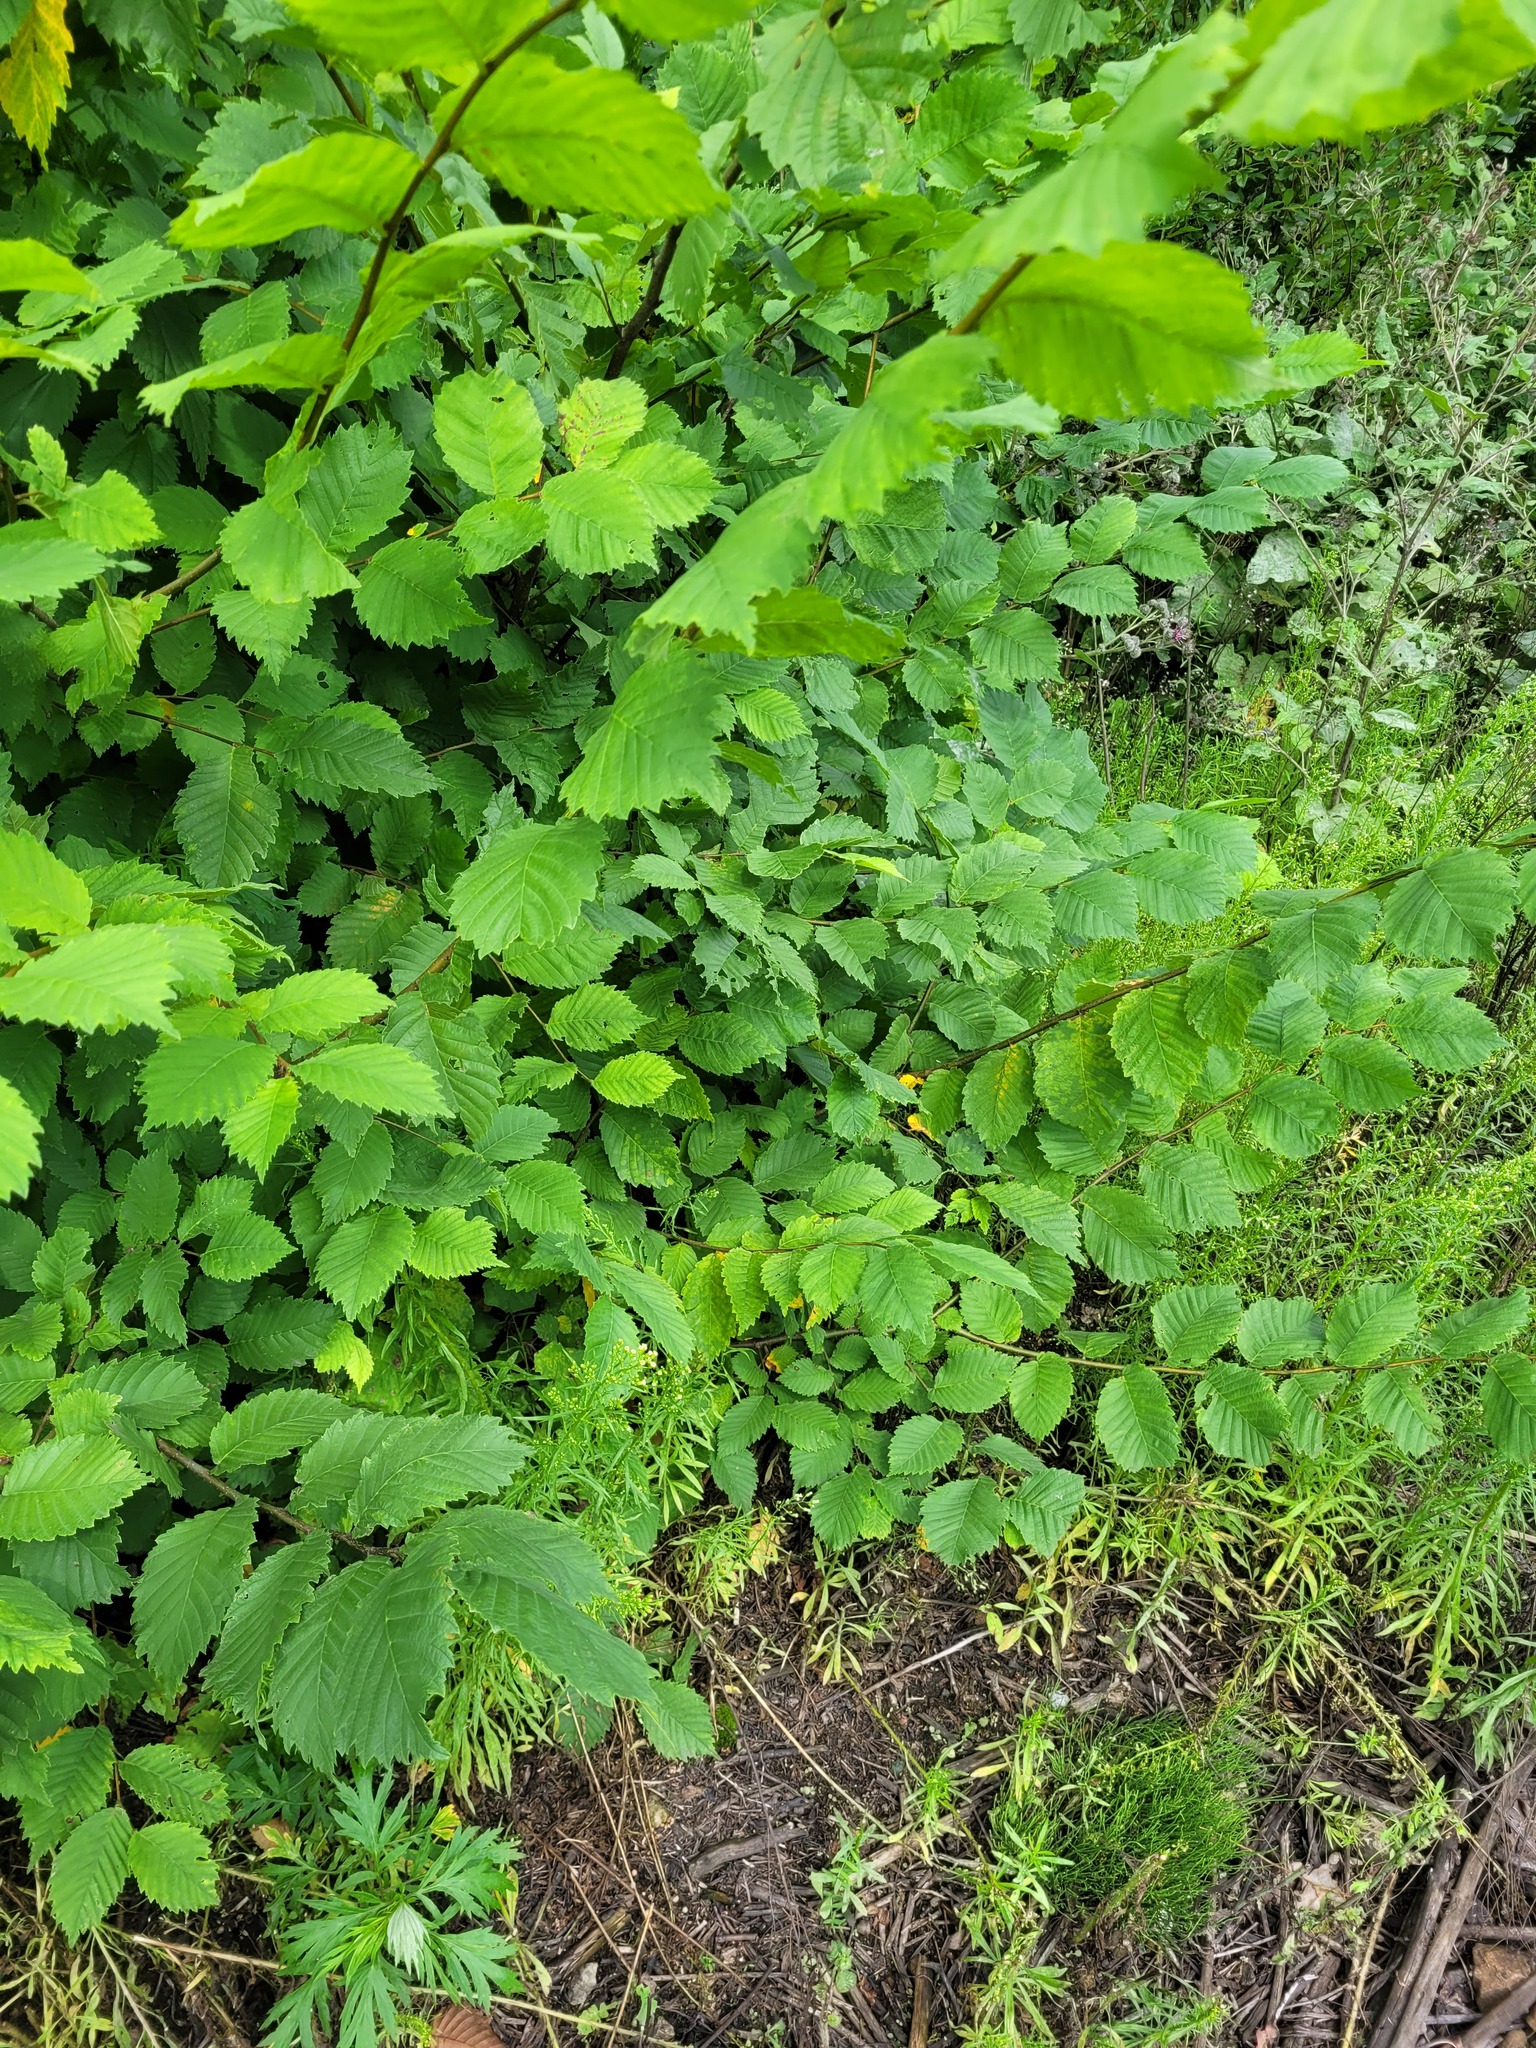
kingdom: Plantae
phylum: Tracheophyta
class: Magnoliopsida
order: Rosales
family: Ulmaceae
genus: Ulmus
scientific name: Ulmus laevis
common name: European white-elm
